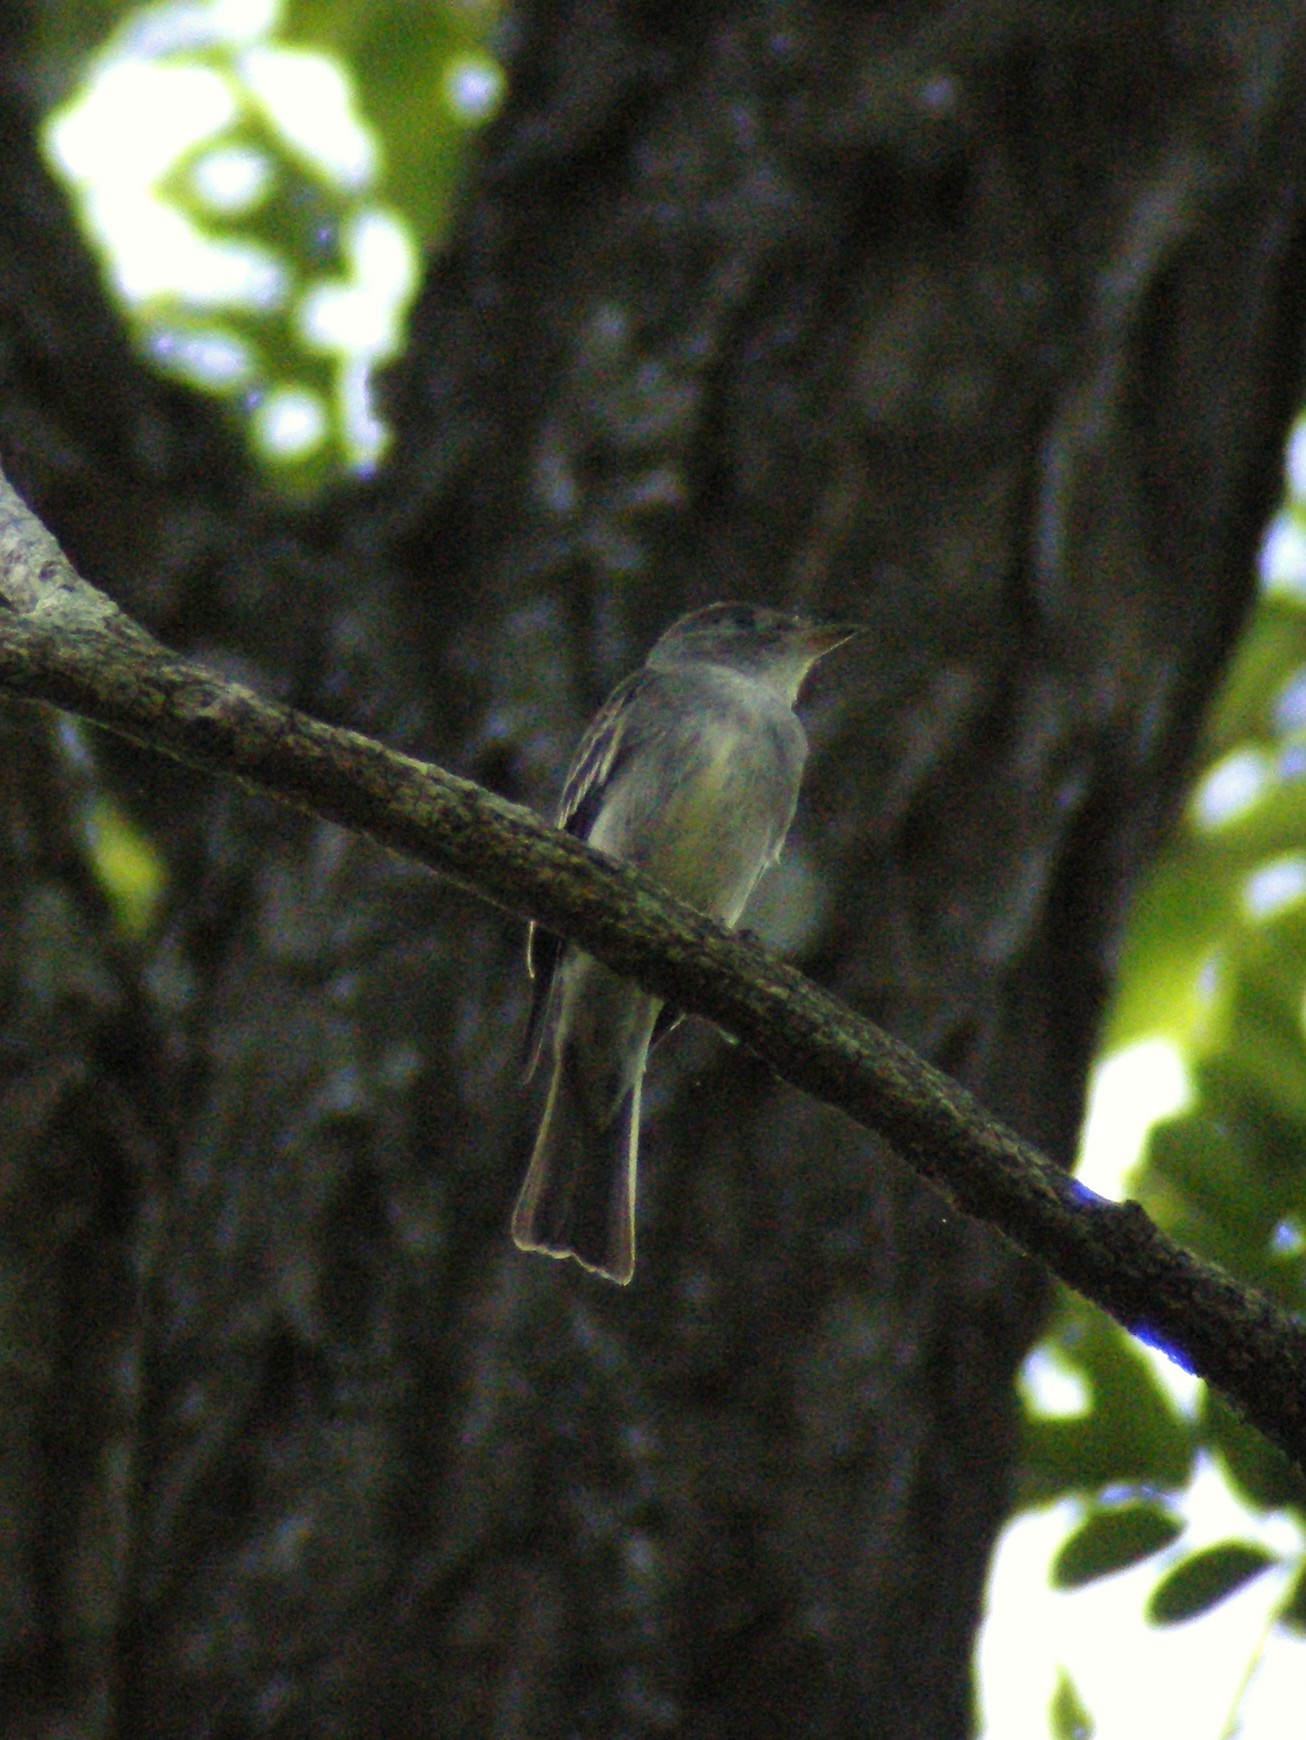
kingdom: Animalia
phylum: Chordata
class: Aves
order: Passeriformes
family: Tyrannidae
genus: Contopus
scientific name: Contopus virens
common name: Eastern wood-pewee
